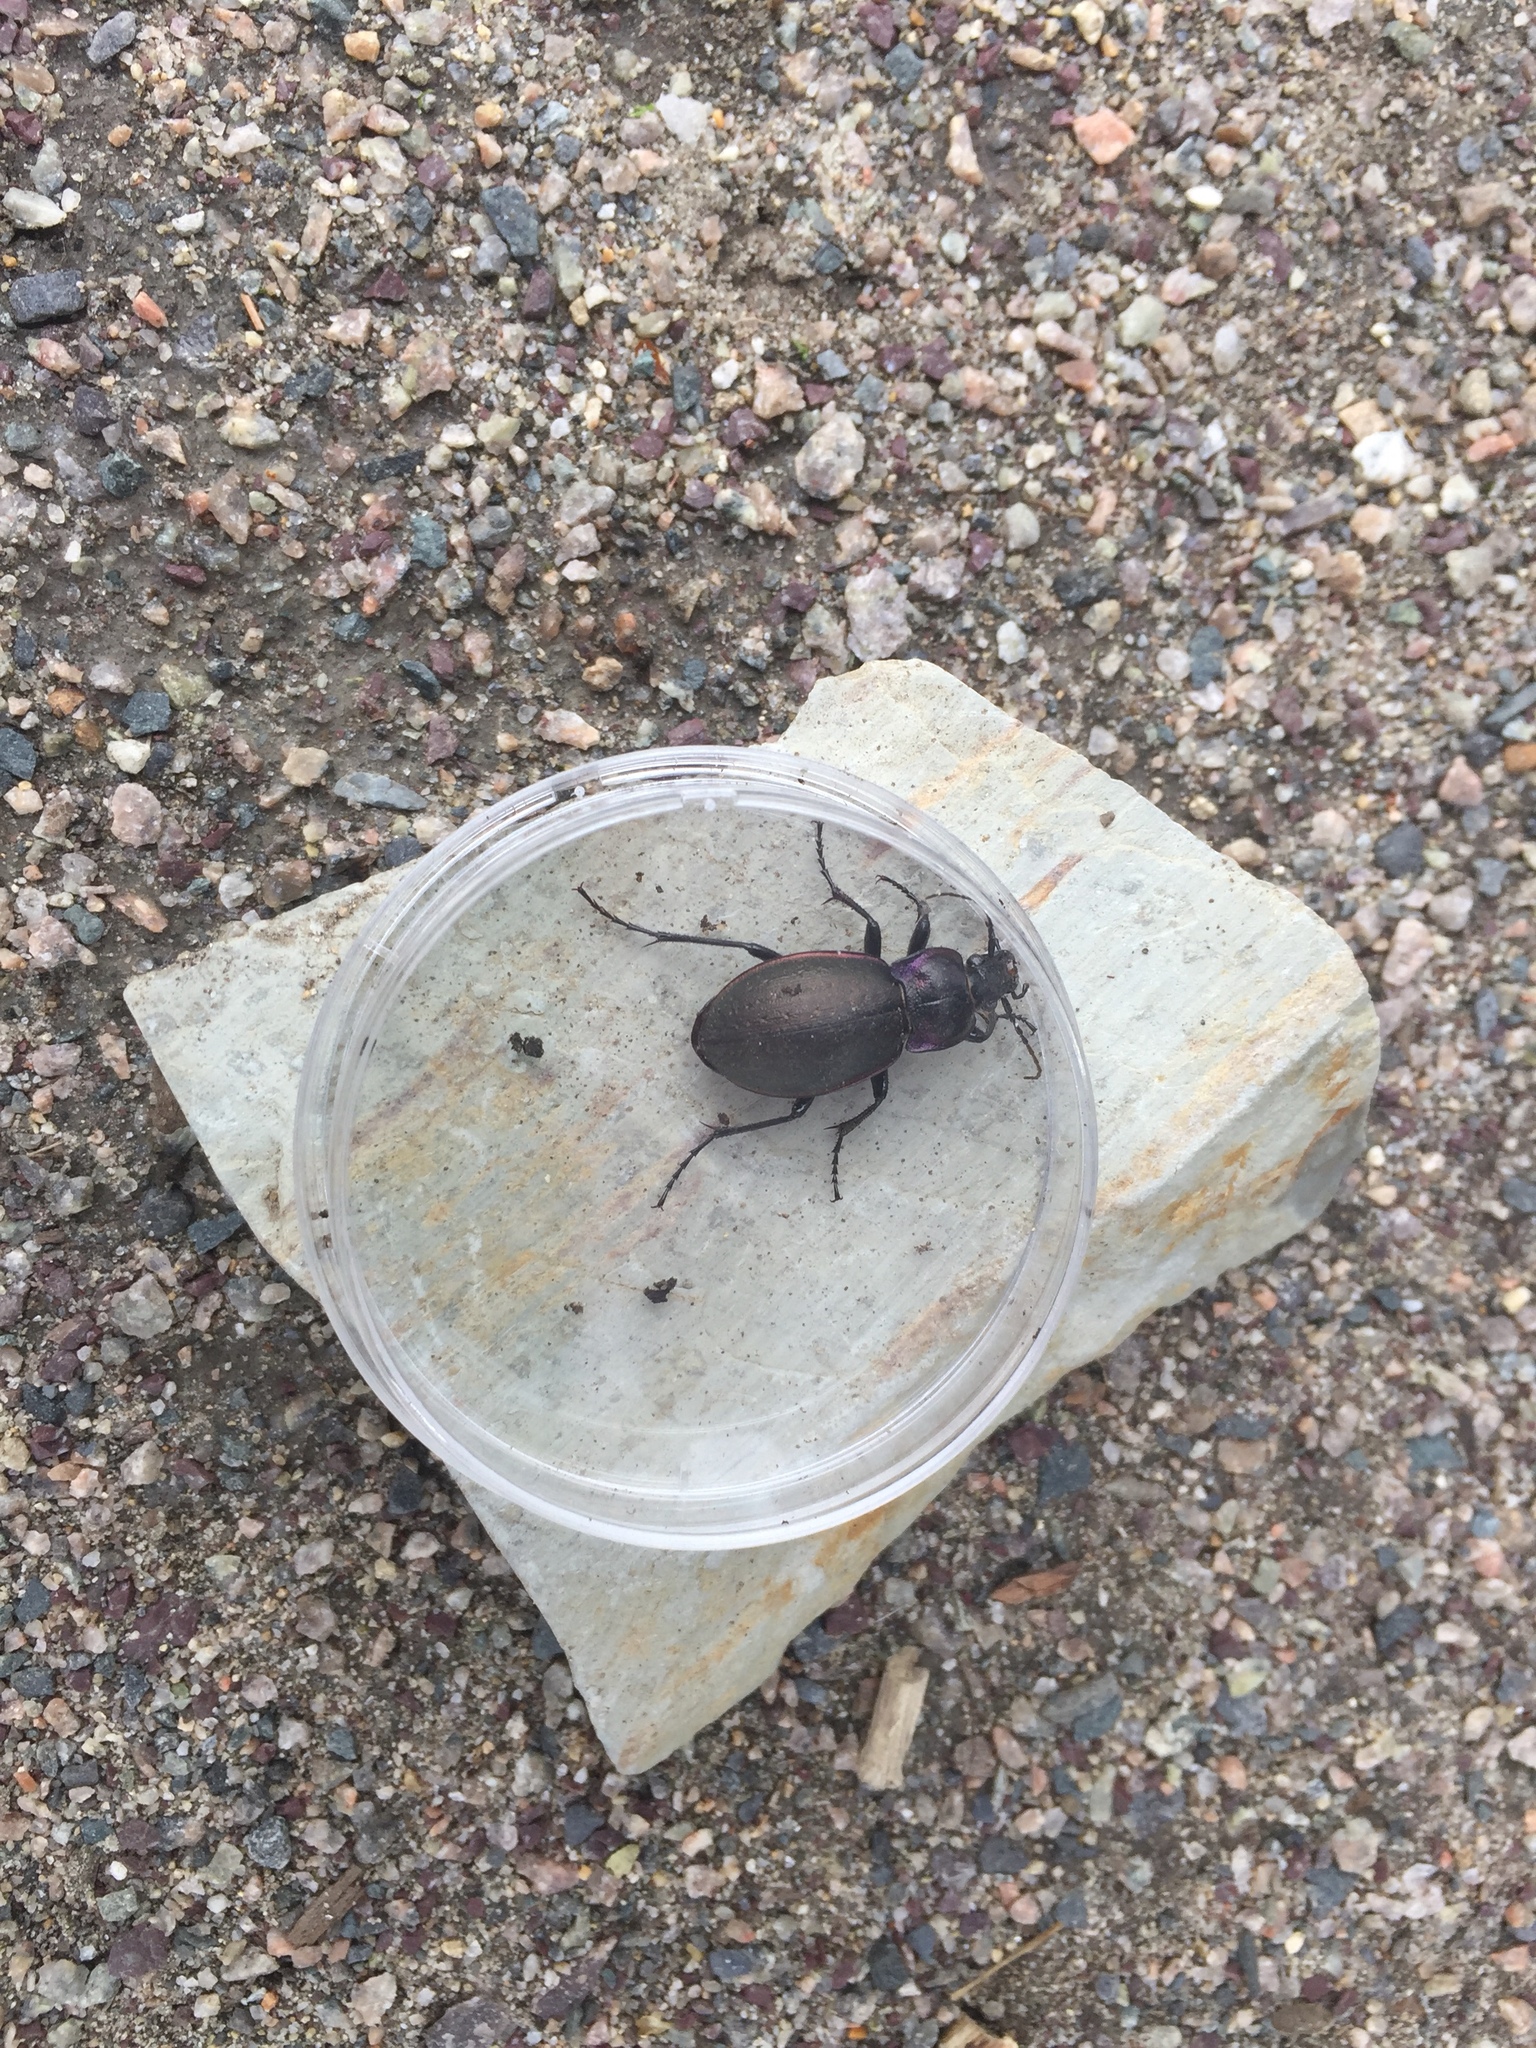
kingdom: Animalia
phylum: Arthropoda
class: Insecta
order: Coleoptera
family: Carabidae
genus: Carabus
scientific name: Carabus nemoralis
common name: European ground beetle
